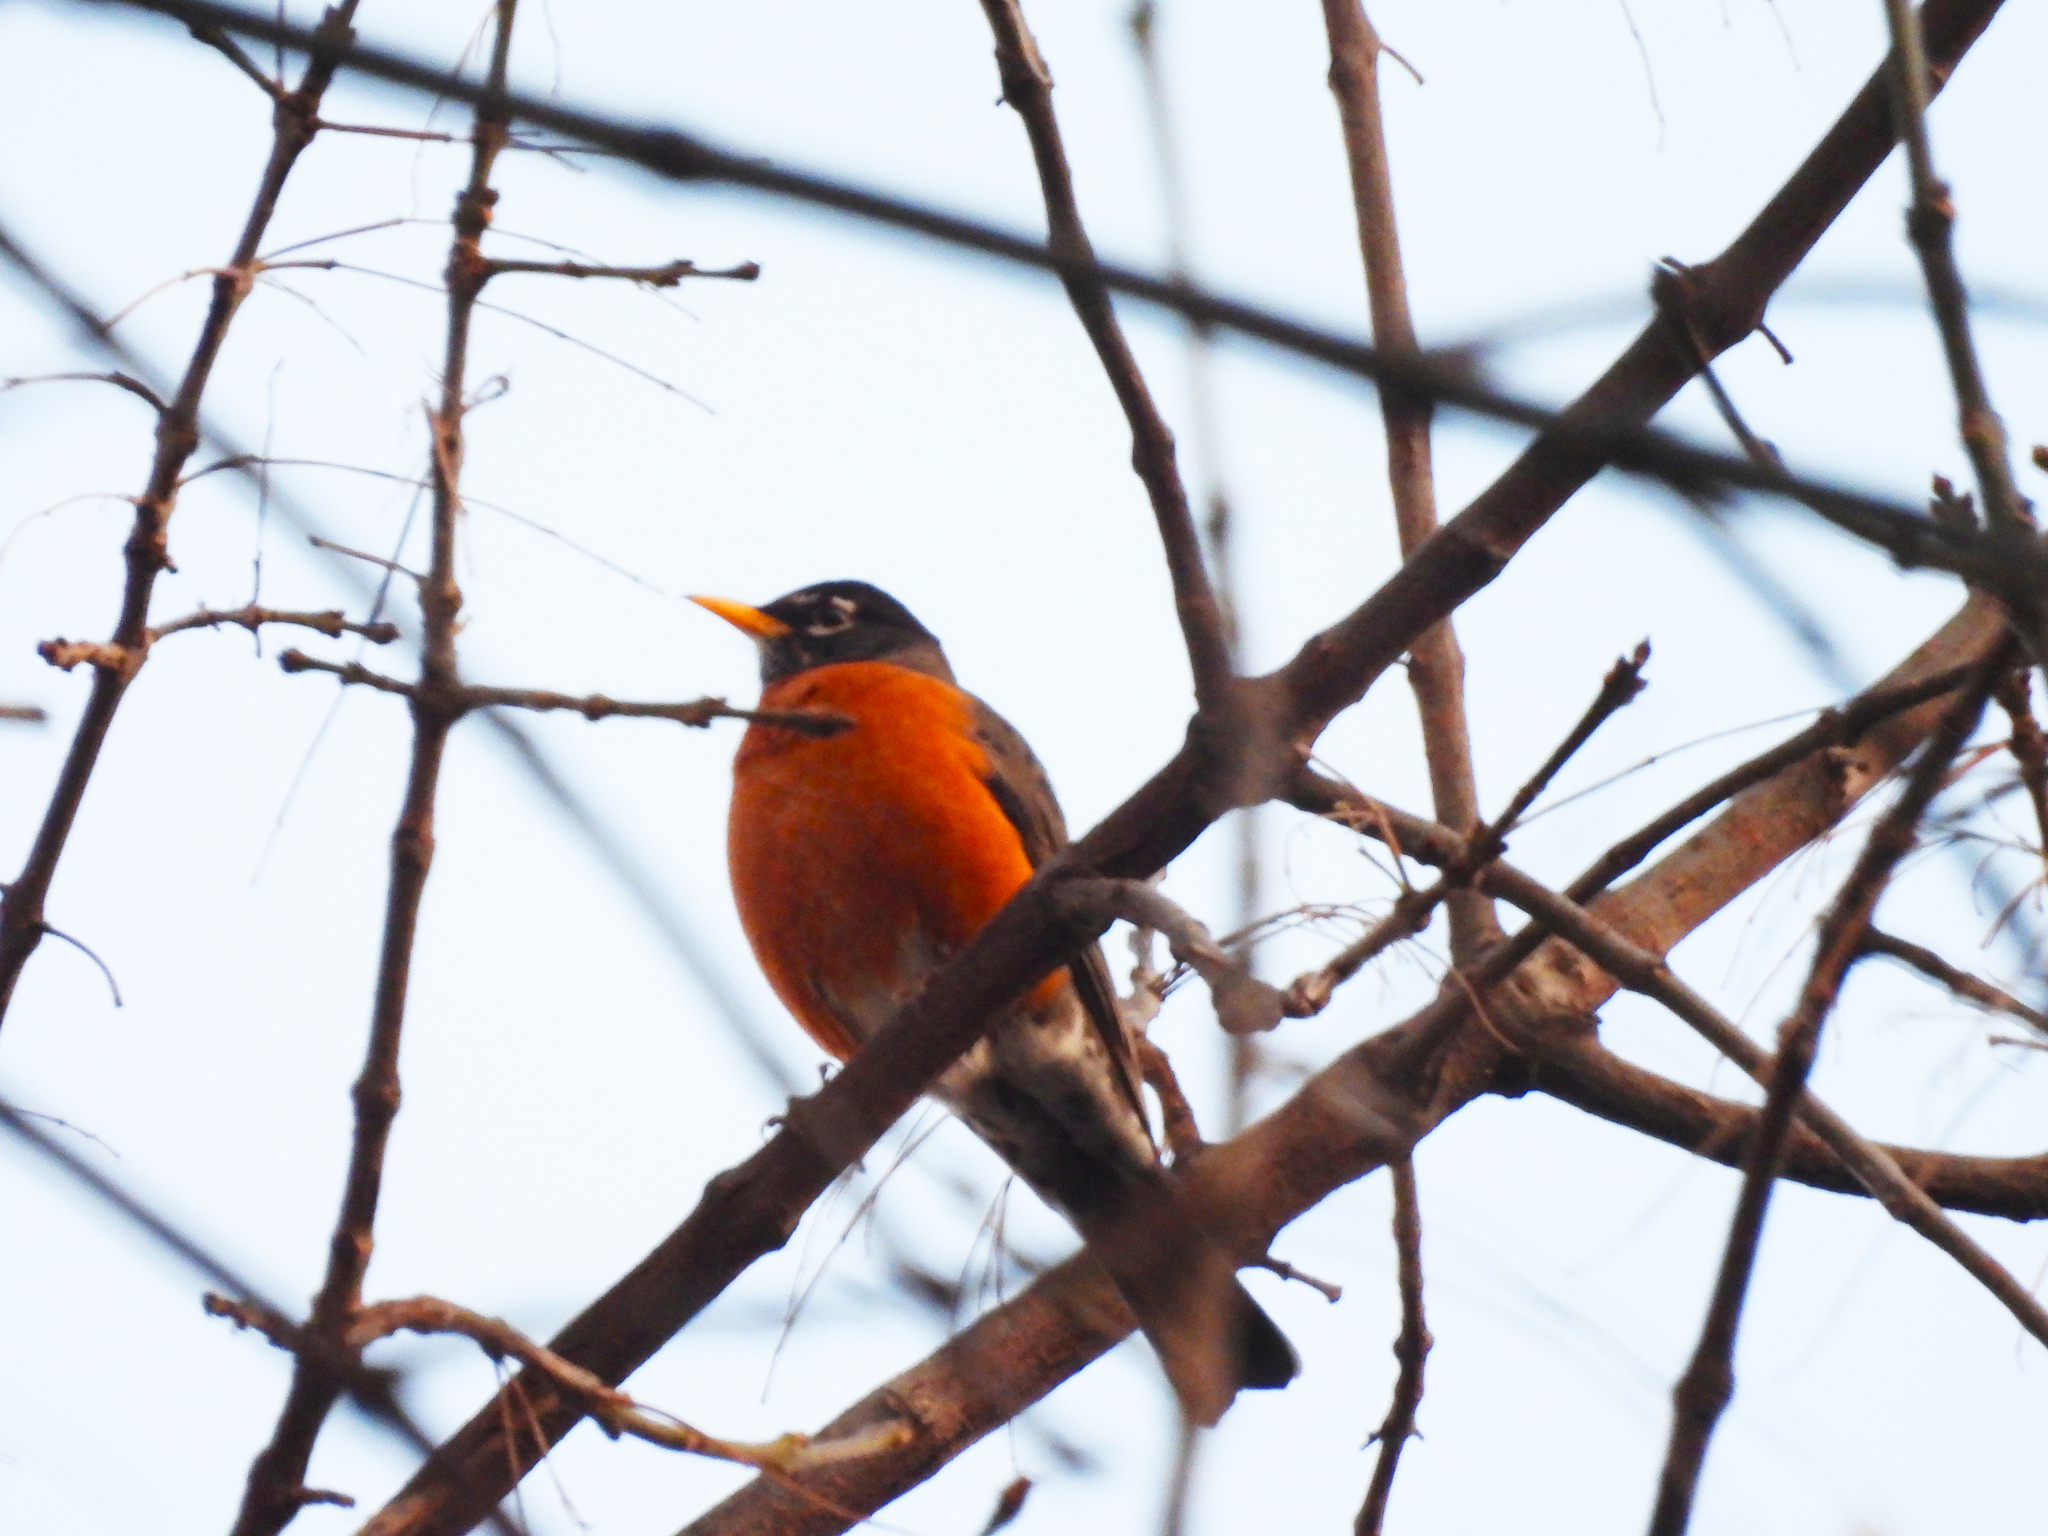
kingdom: Animalia
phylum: Chordata
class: Aves
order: Passeriformes
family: Turdidae
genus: Turdus
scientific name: Turdus migratorius
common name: American robin
